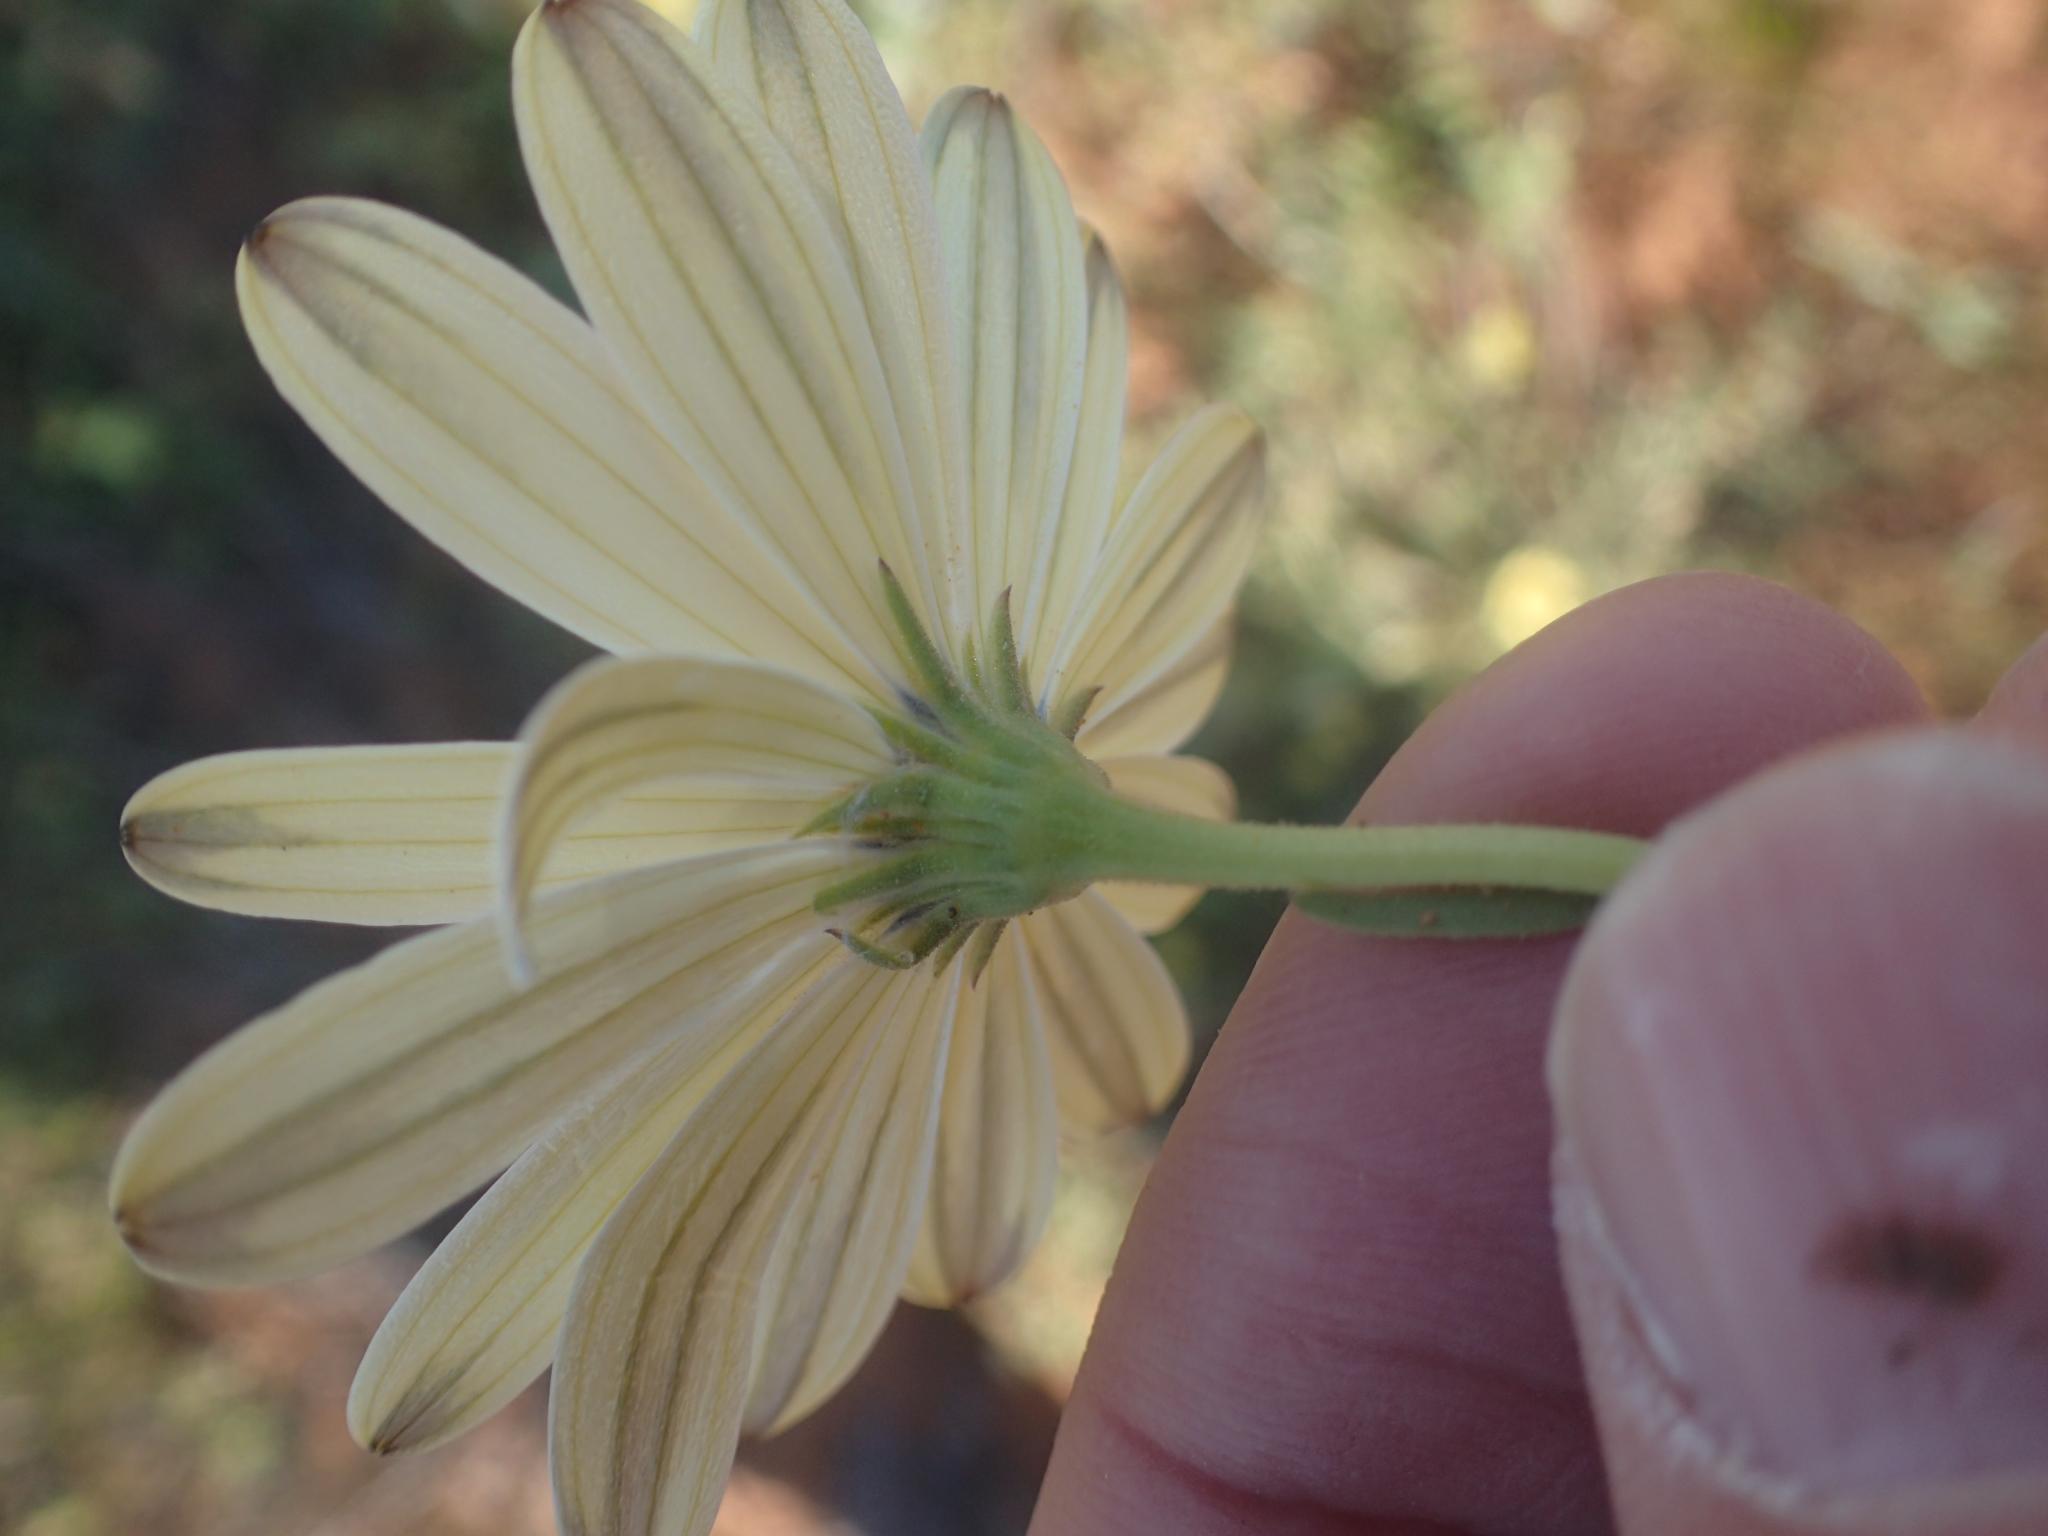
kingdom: Plantae
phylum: Tracheophyta
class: Magnoliopsida
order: Asterales
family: Asteraceae
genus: Dimorphotheca
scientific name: Dimorphotheca pluvialis
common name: Weather prophet
